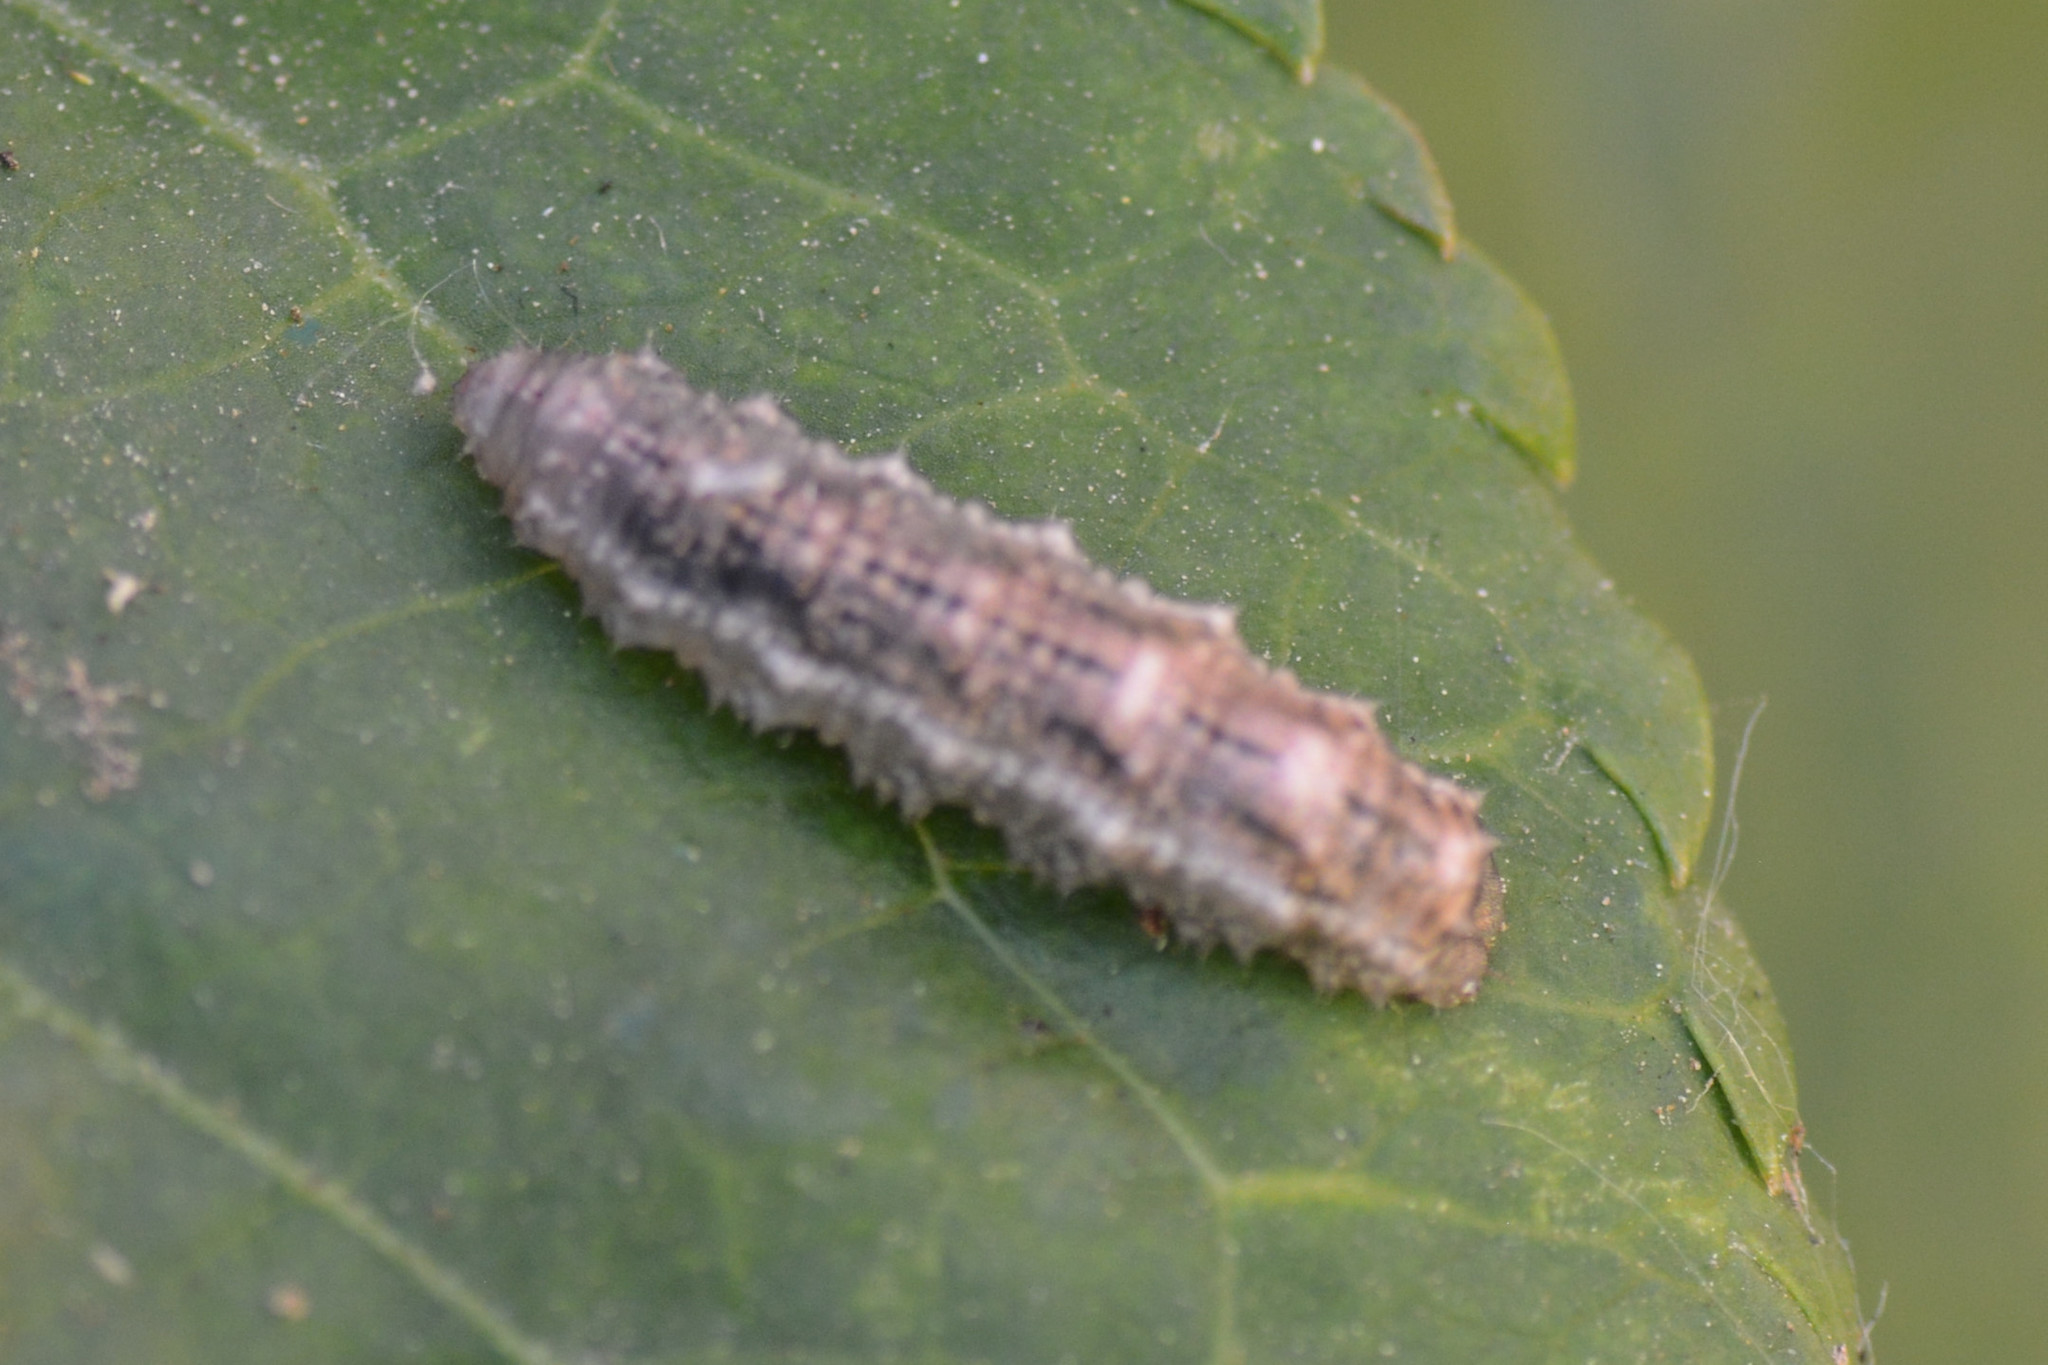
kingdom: Animalia
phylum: Arthropoda
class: Insecta
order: Diptera
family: Syrphidae
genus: Eupeodes
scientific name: Eupeodes luniger
